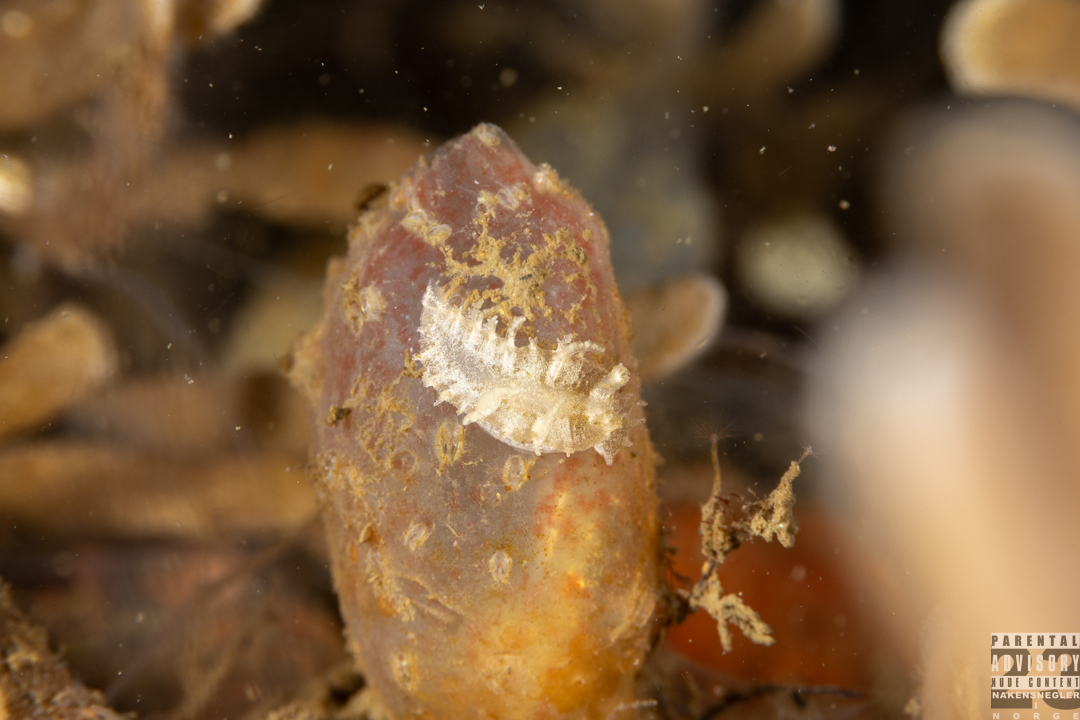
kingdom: Animalia
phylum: Mollusca
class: Gastropoda
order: Nudibranchia
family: Tritoniidae
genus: Duvaucelia
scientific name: Duvaucelia plebeia
